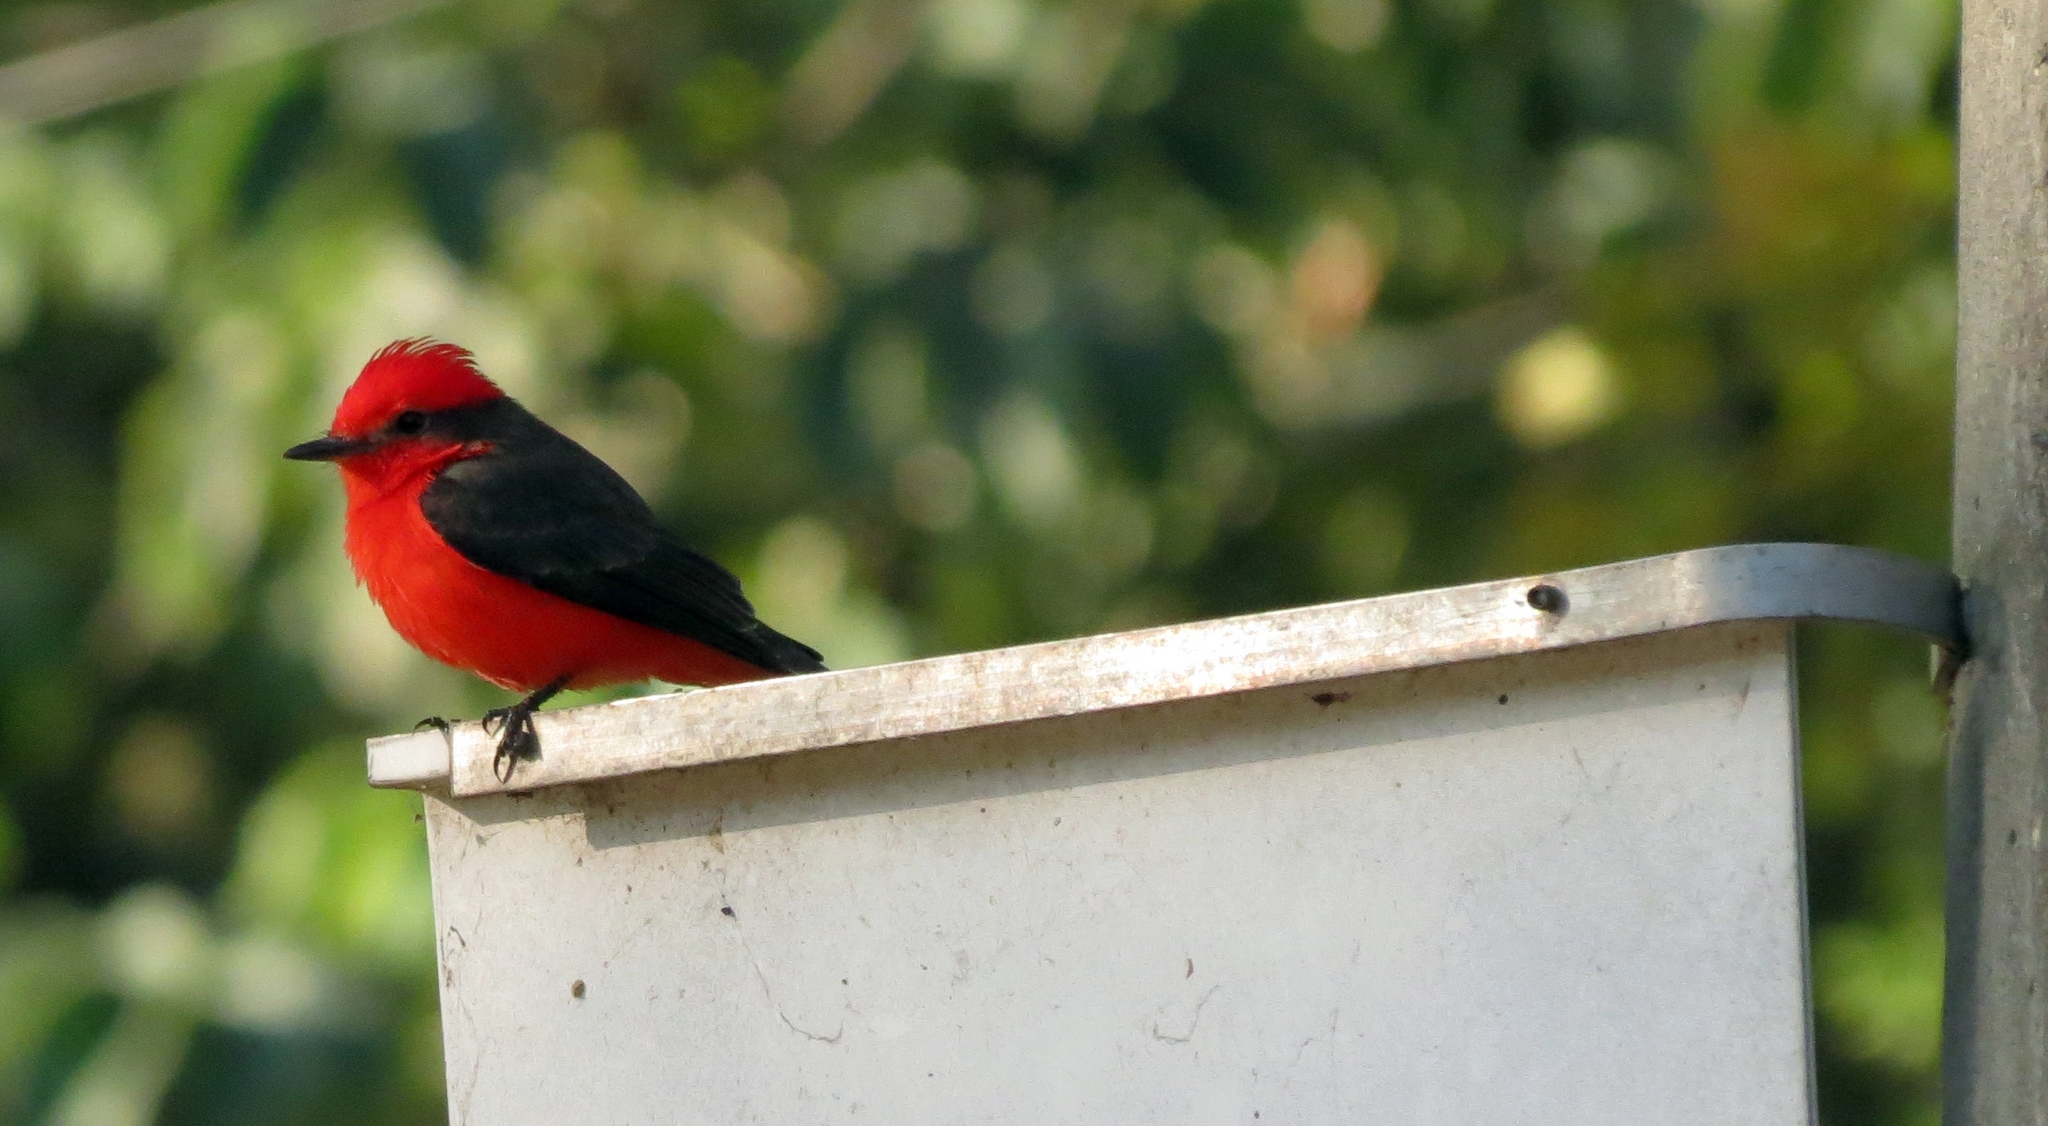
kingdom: Animalia
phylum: Chordata
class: Aves
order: Passeriformes
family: Tyrannidae
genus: Pyrocephalus
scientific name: Pyrocephalus rubinus
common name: Vermilion flycatcher
